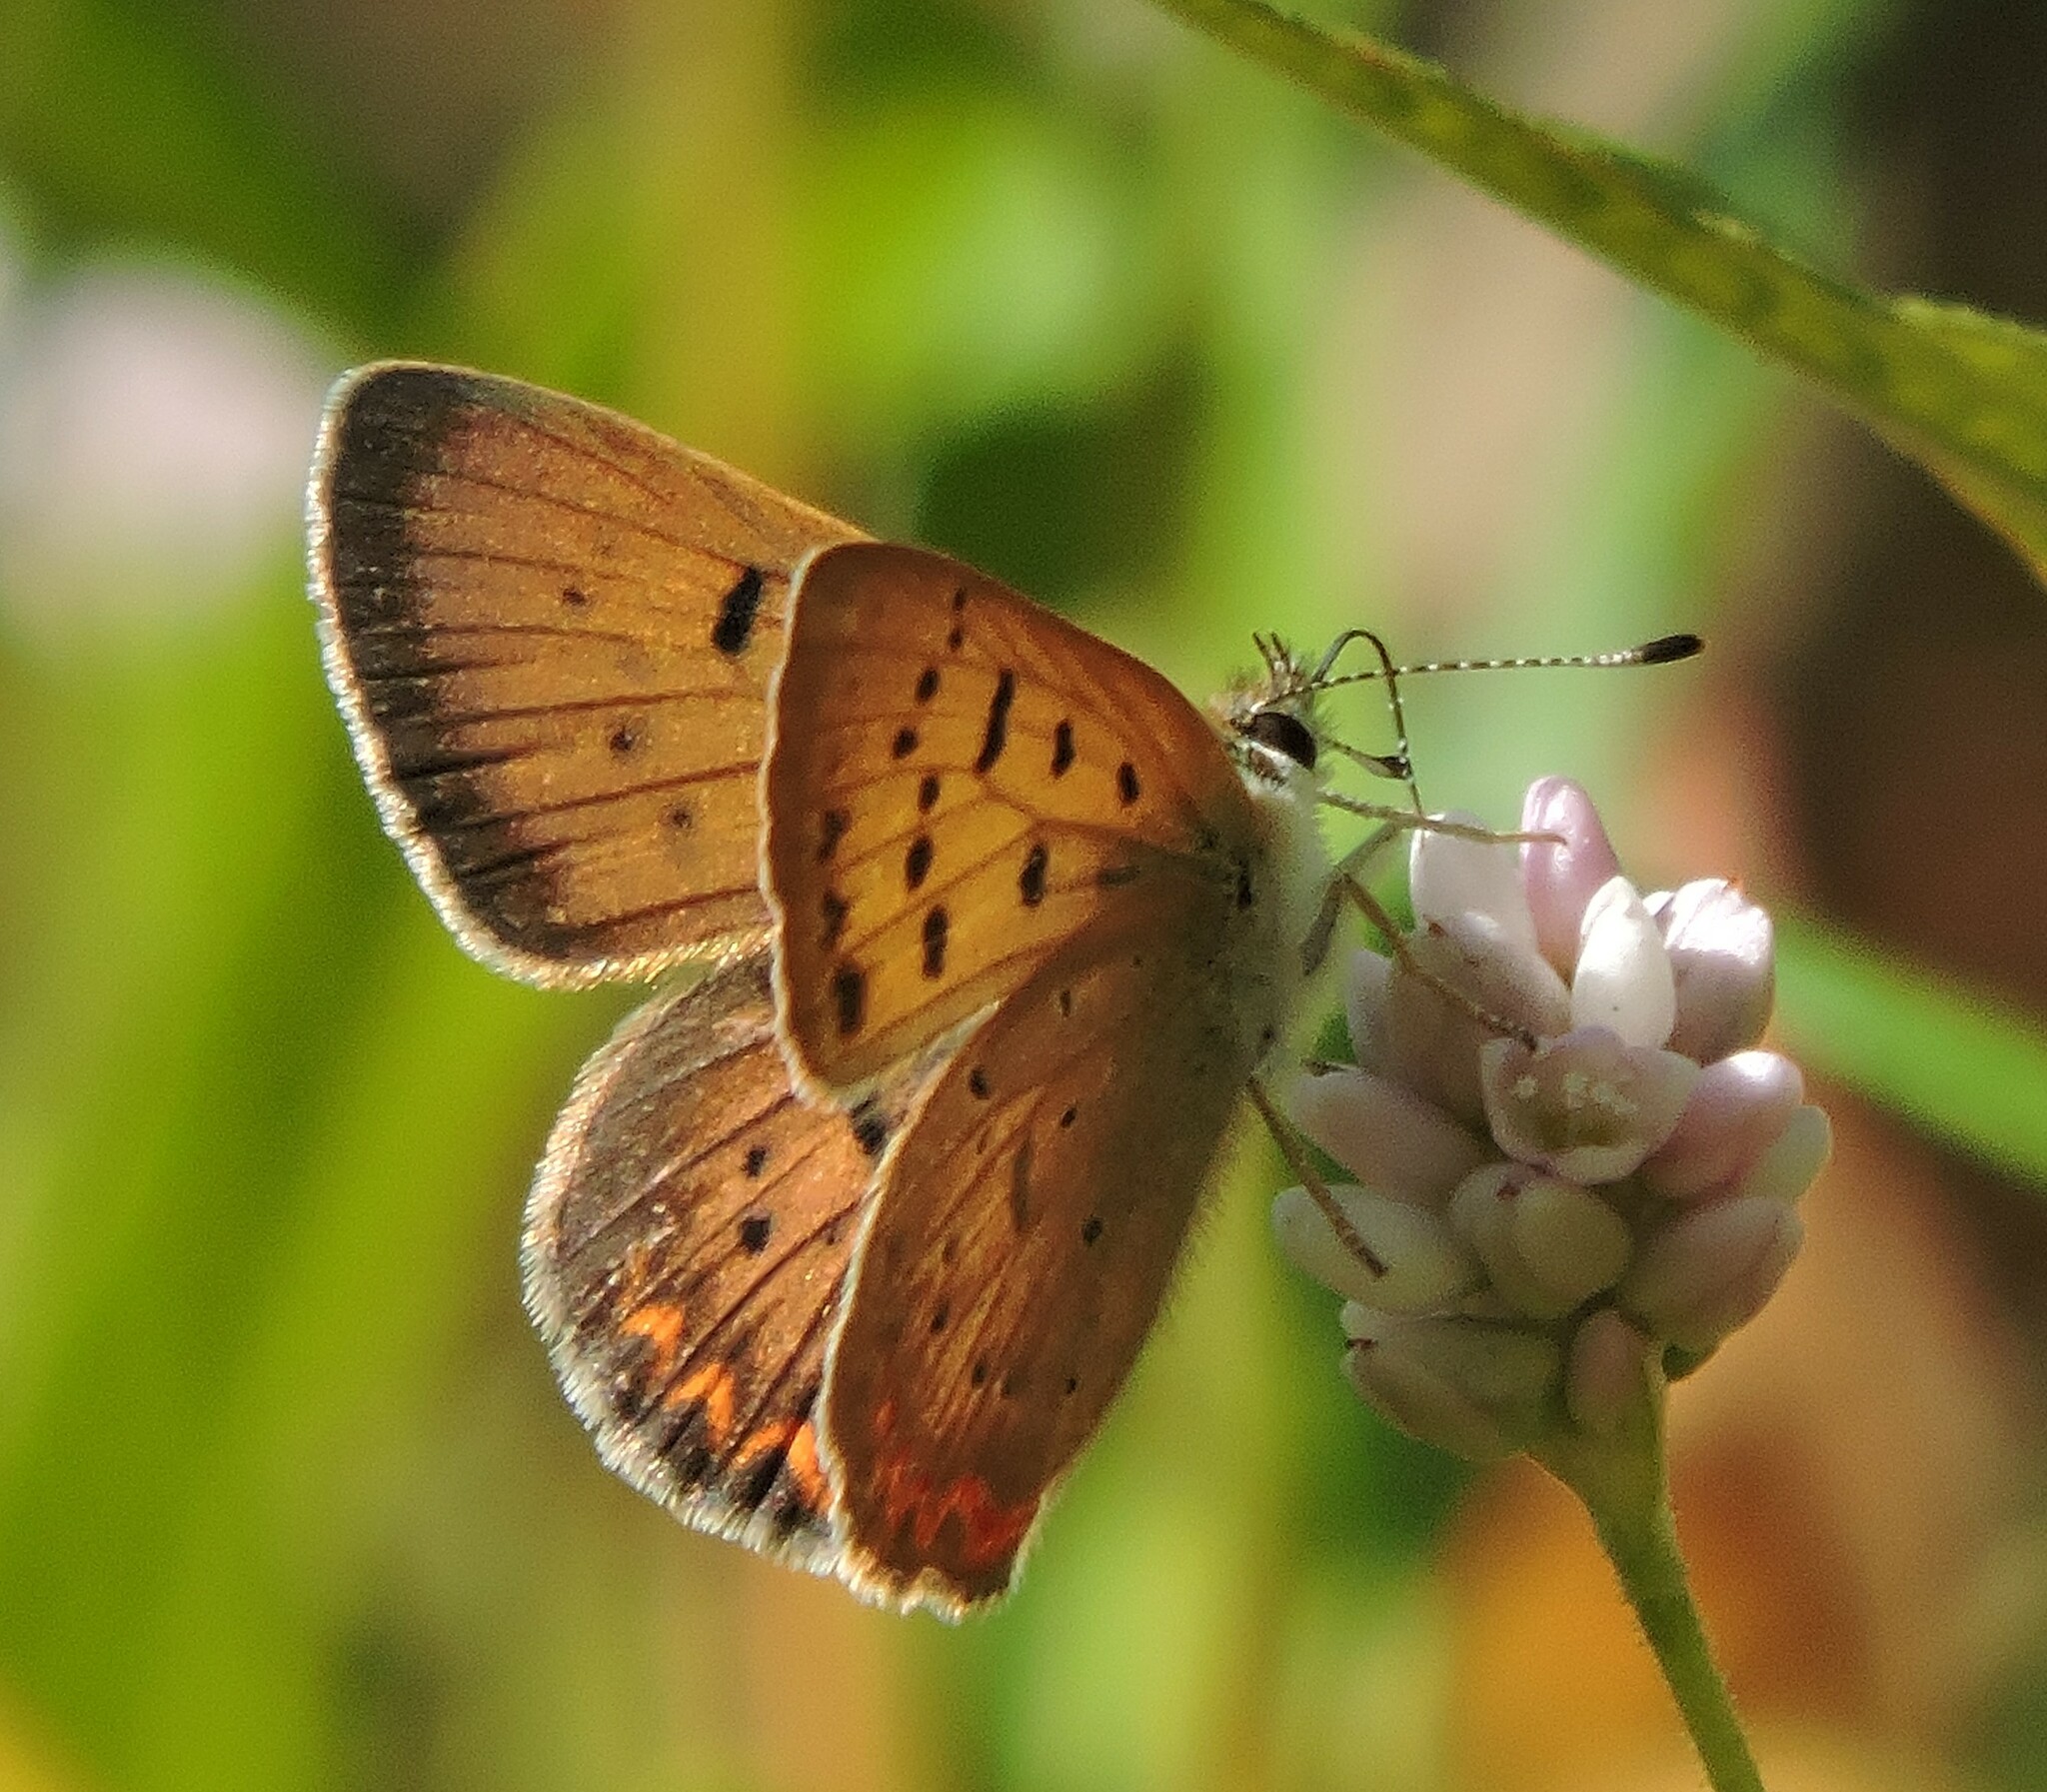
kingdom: Animalia
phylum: Arthropoda
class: Insecta
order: Lepidoptera
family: Lycaenidae
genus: Tharsalea
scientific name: Tharsalea helloides
